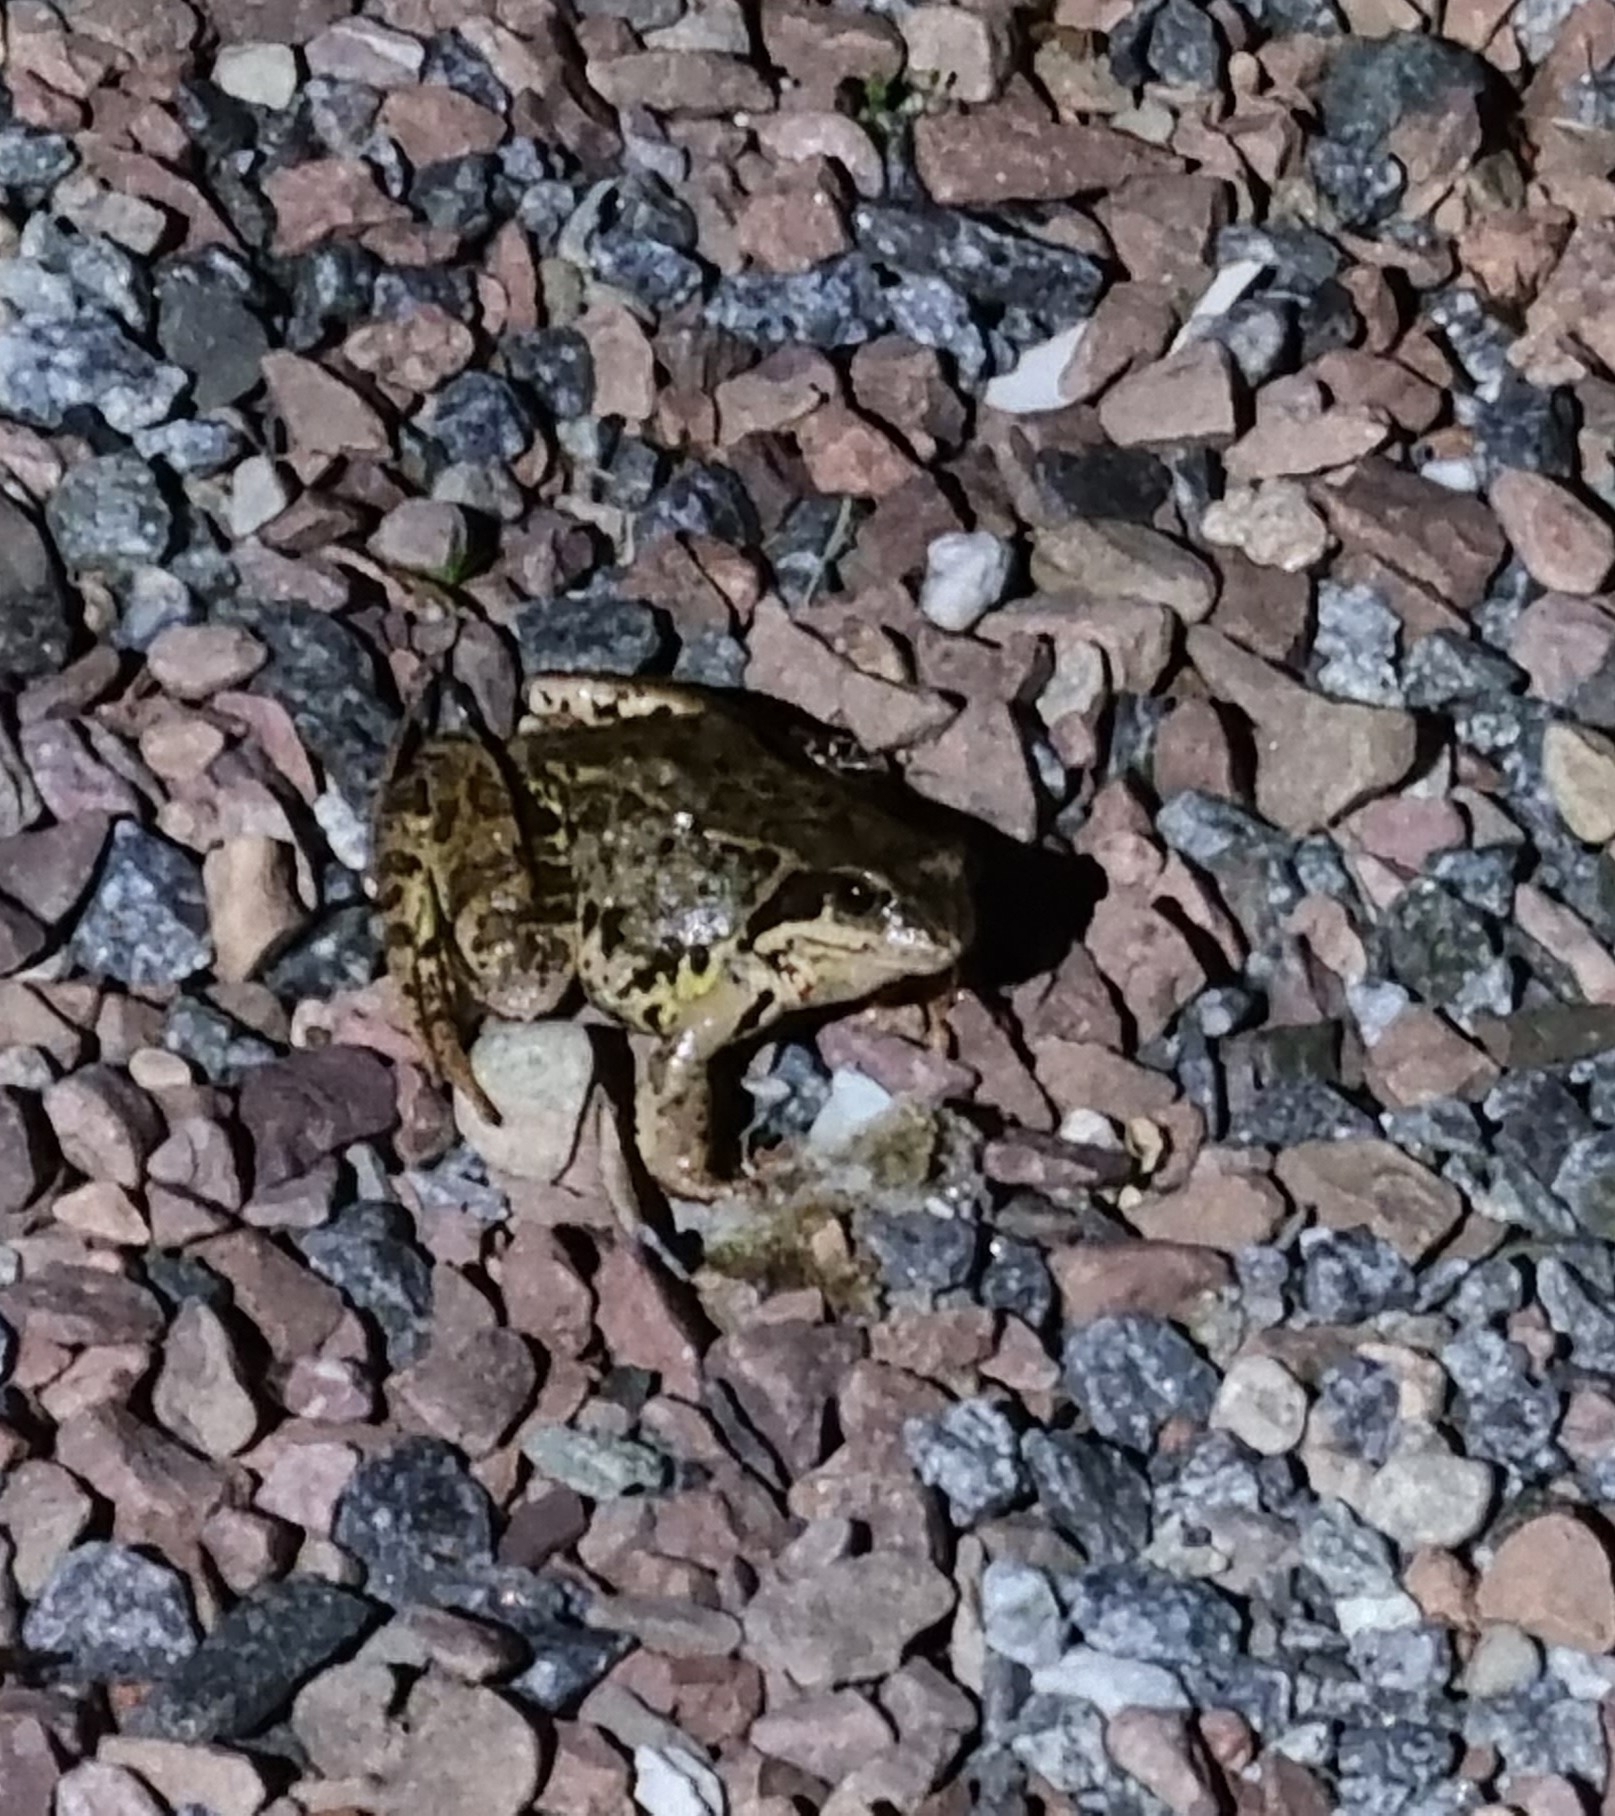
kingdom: Animalia
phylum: Chordata
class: Amphibia
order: Anura
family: Ranidae
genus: Rana
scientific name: Rana temporaria
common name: Common frog
